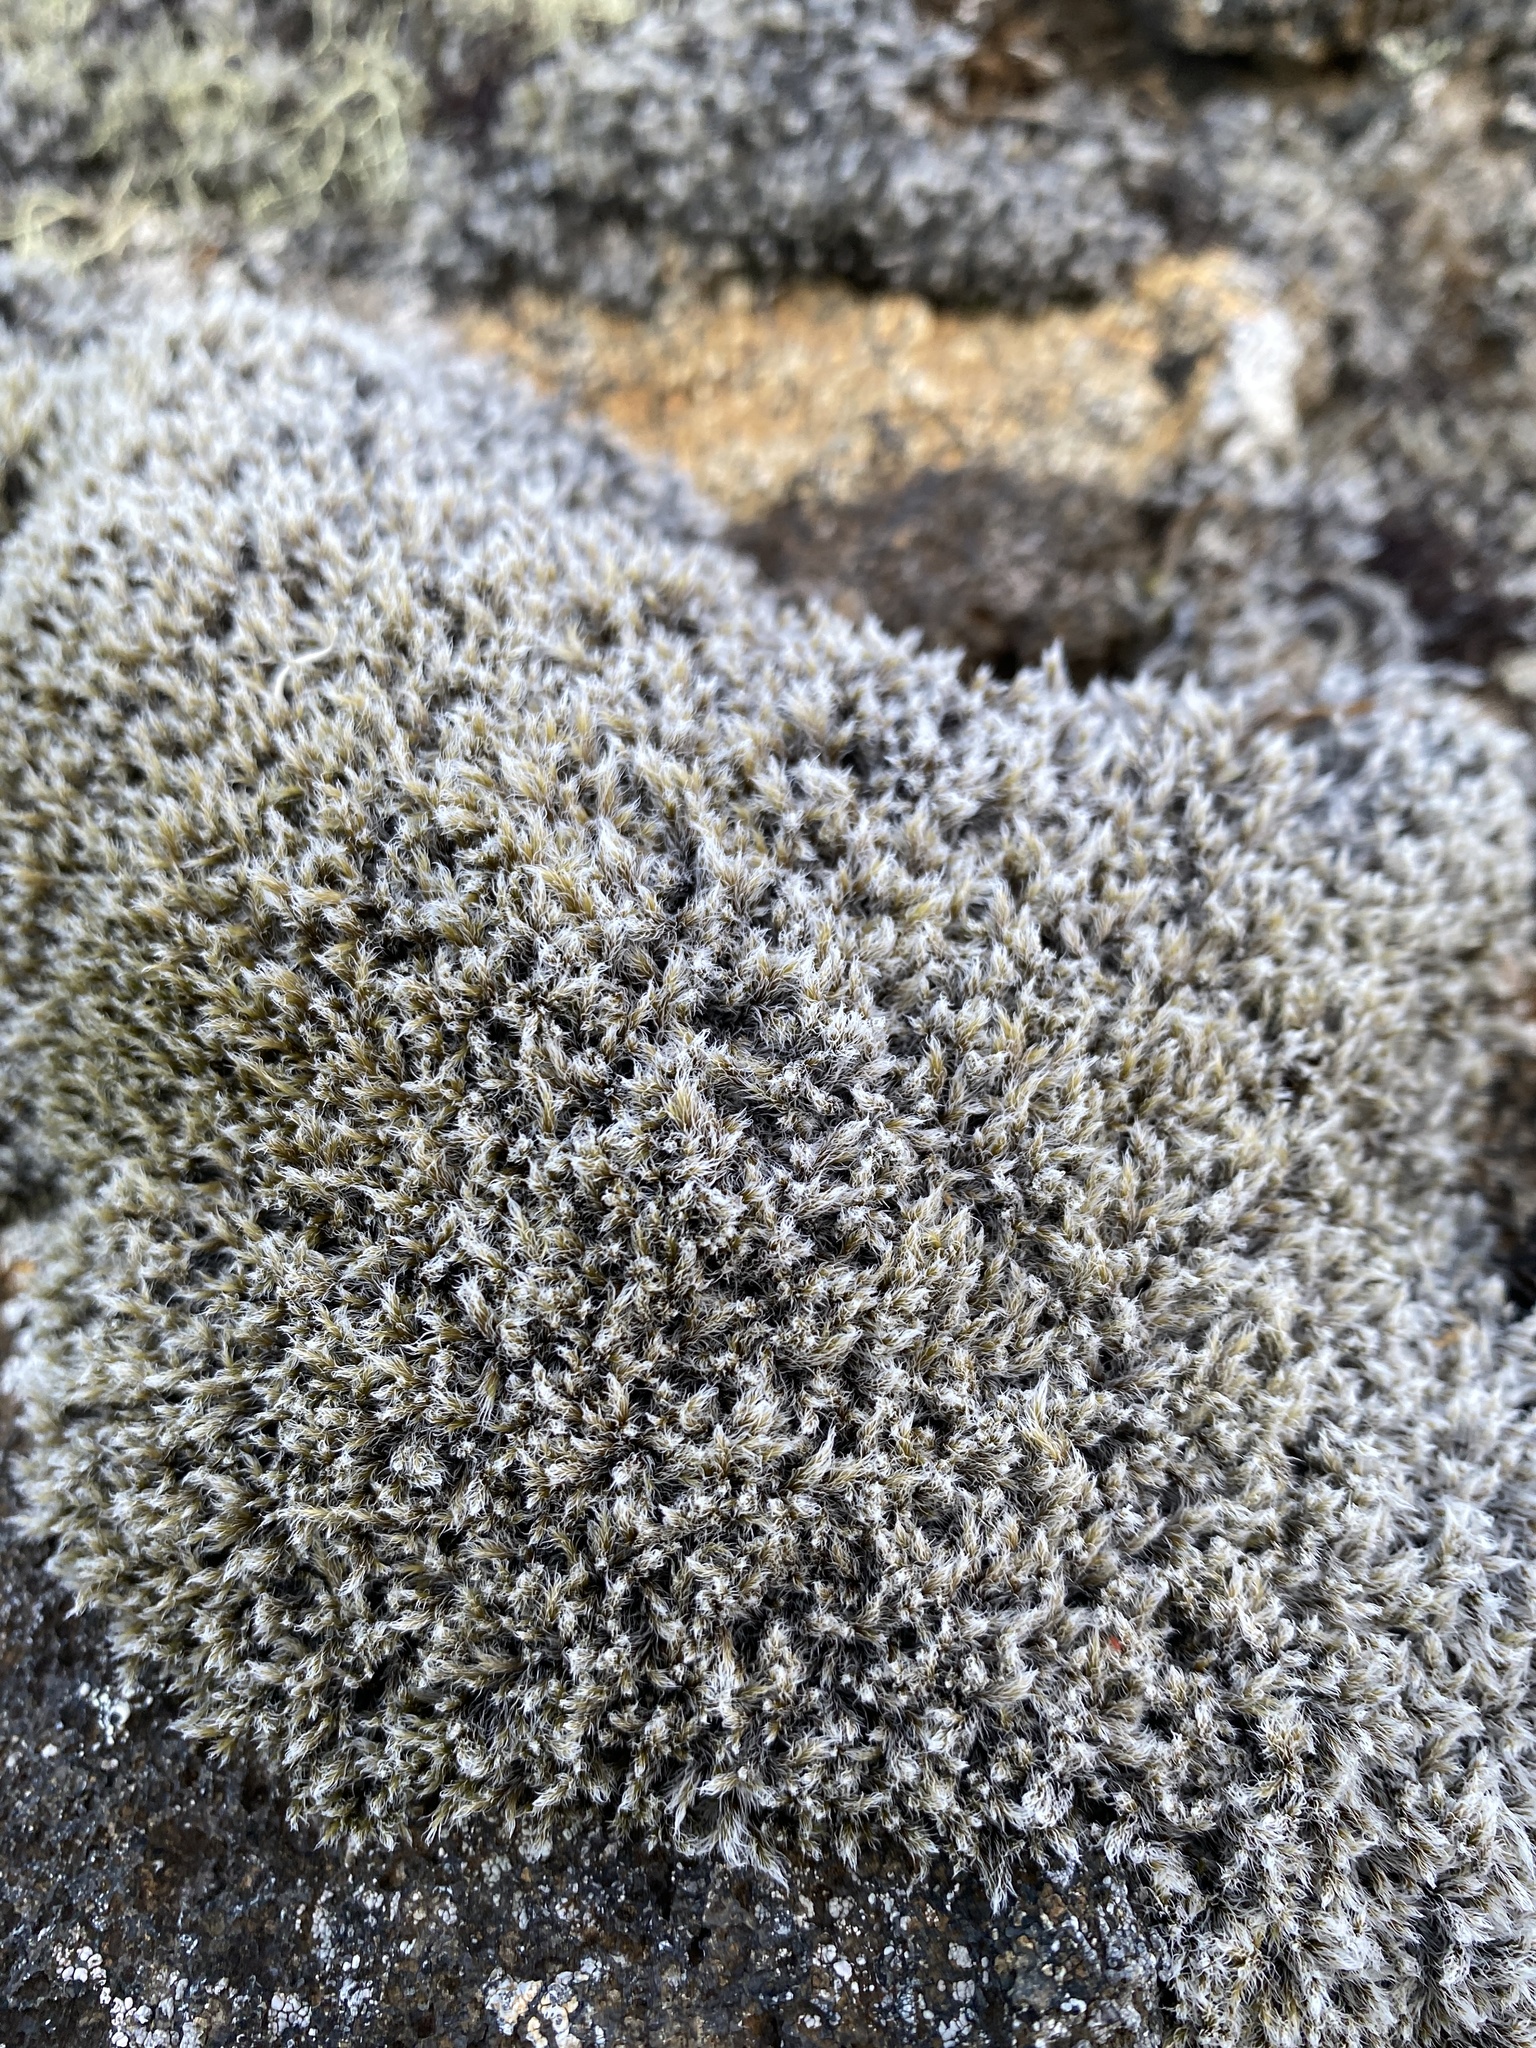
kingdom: Plantae
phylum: Bryophyta
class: Bryopsida
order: Grimmiales
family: Grimmiaceae
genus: Racomitrium
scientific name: Racomitrium lanuginosum
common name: Hoary rock moss
